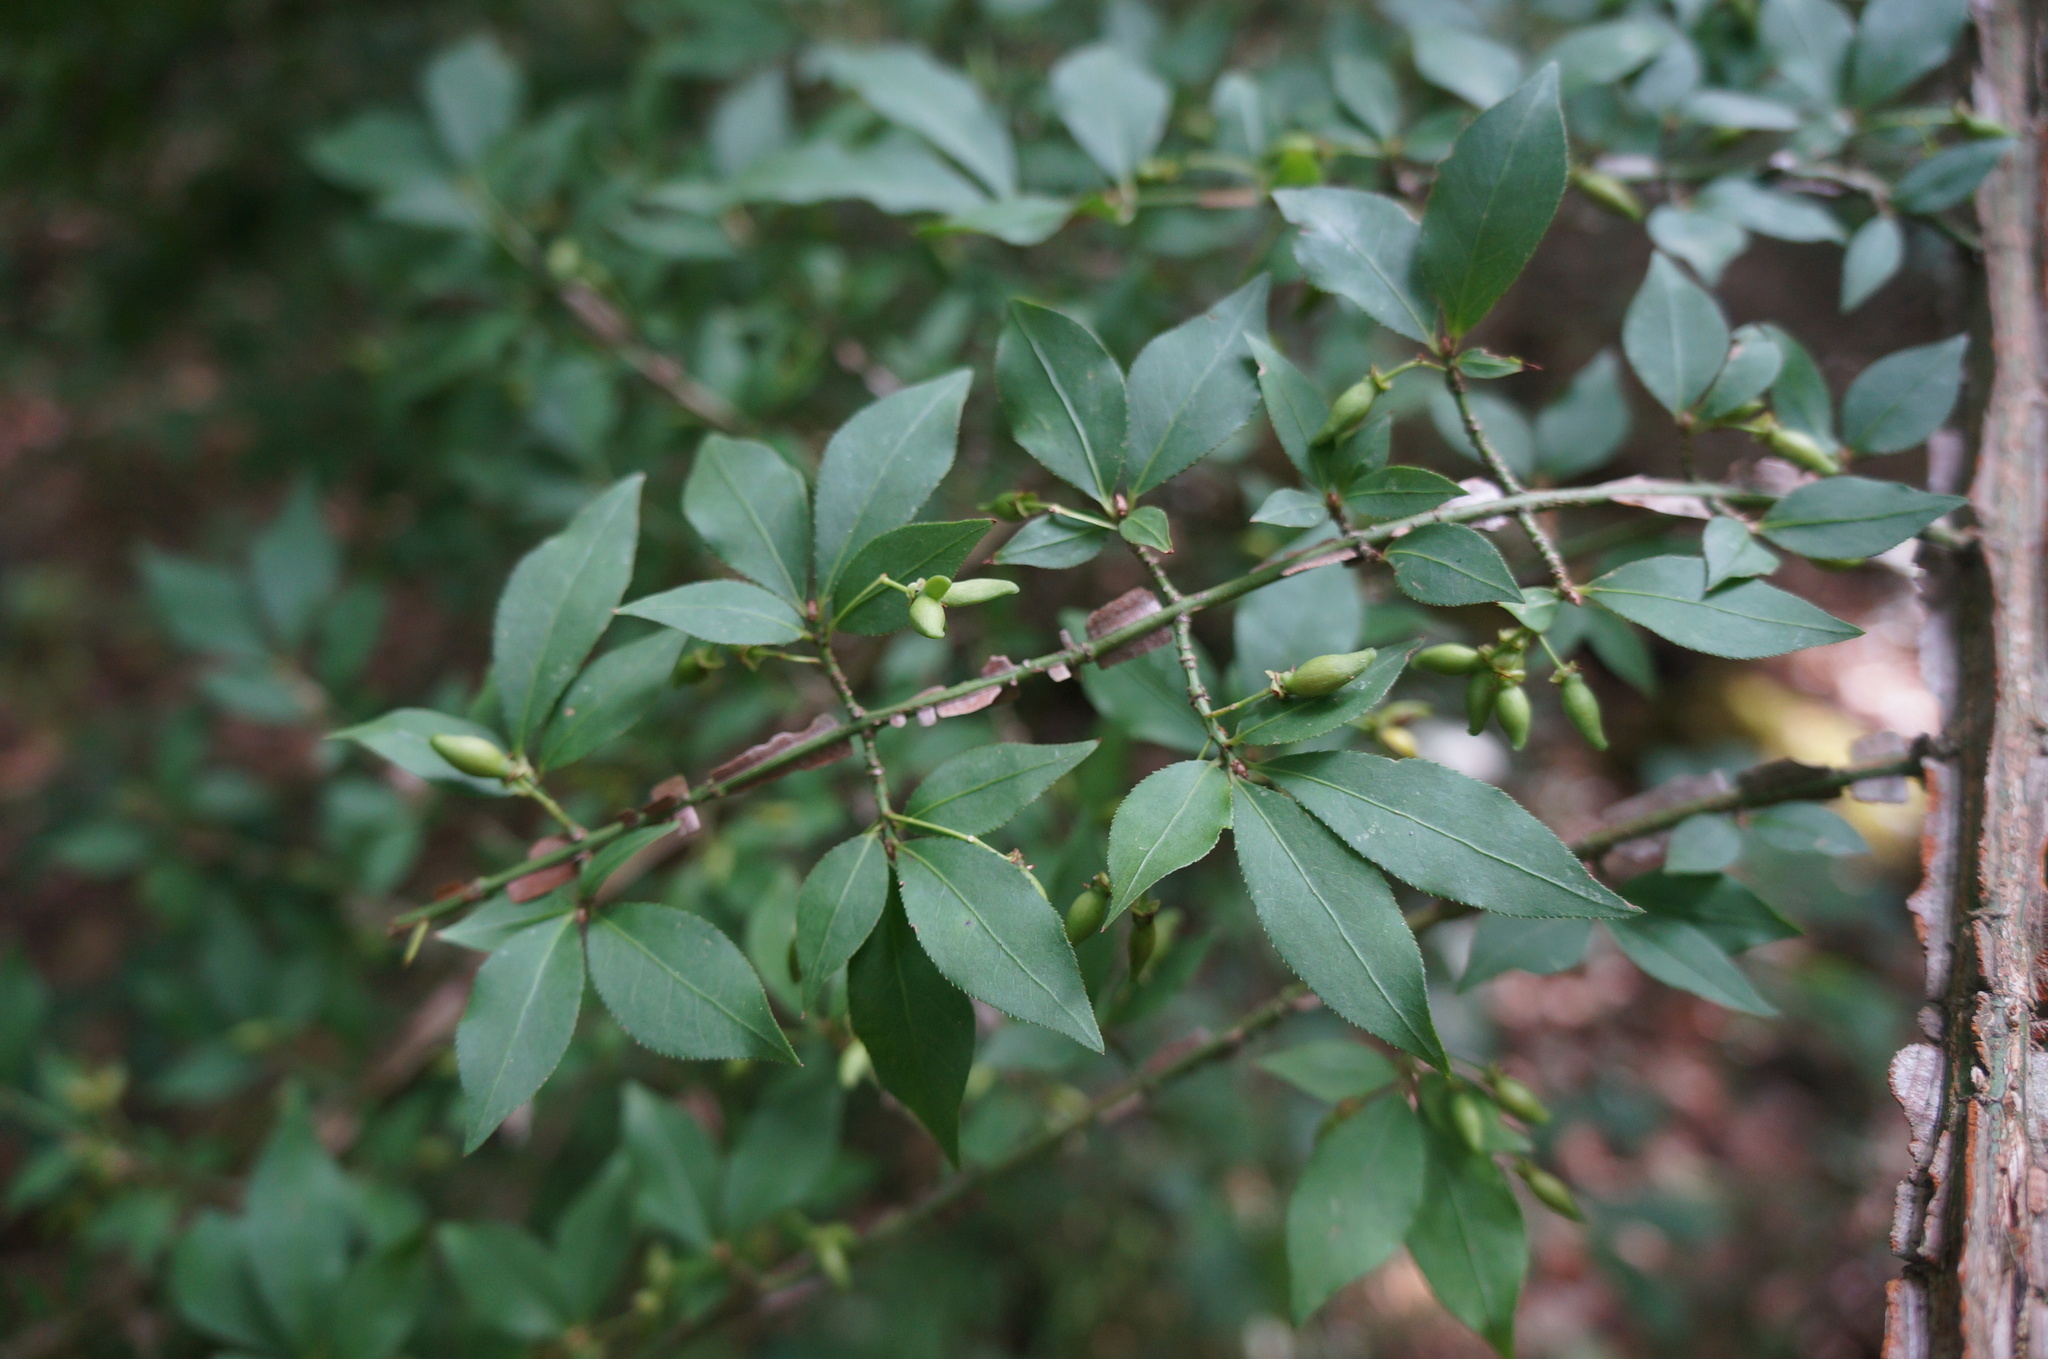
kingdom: Plantae
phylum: Tracheophyta
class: Magnoliopsida
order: Celastrales
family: Celastraceae
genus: Euonymus
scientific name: Euonymus alatus
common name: Winged euonymus
